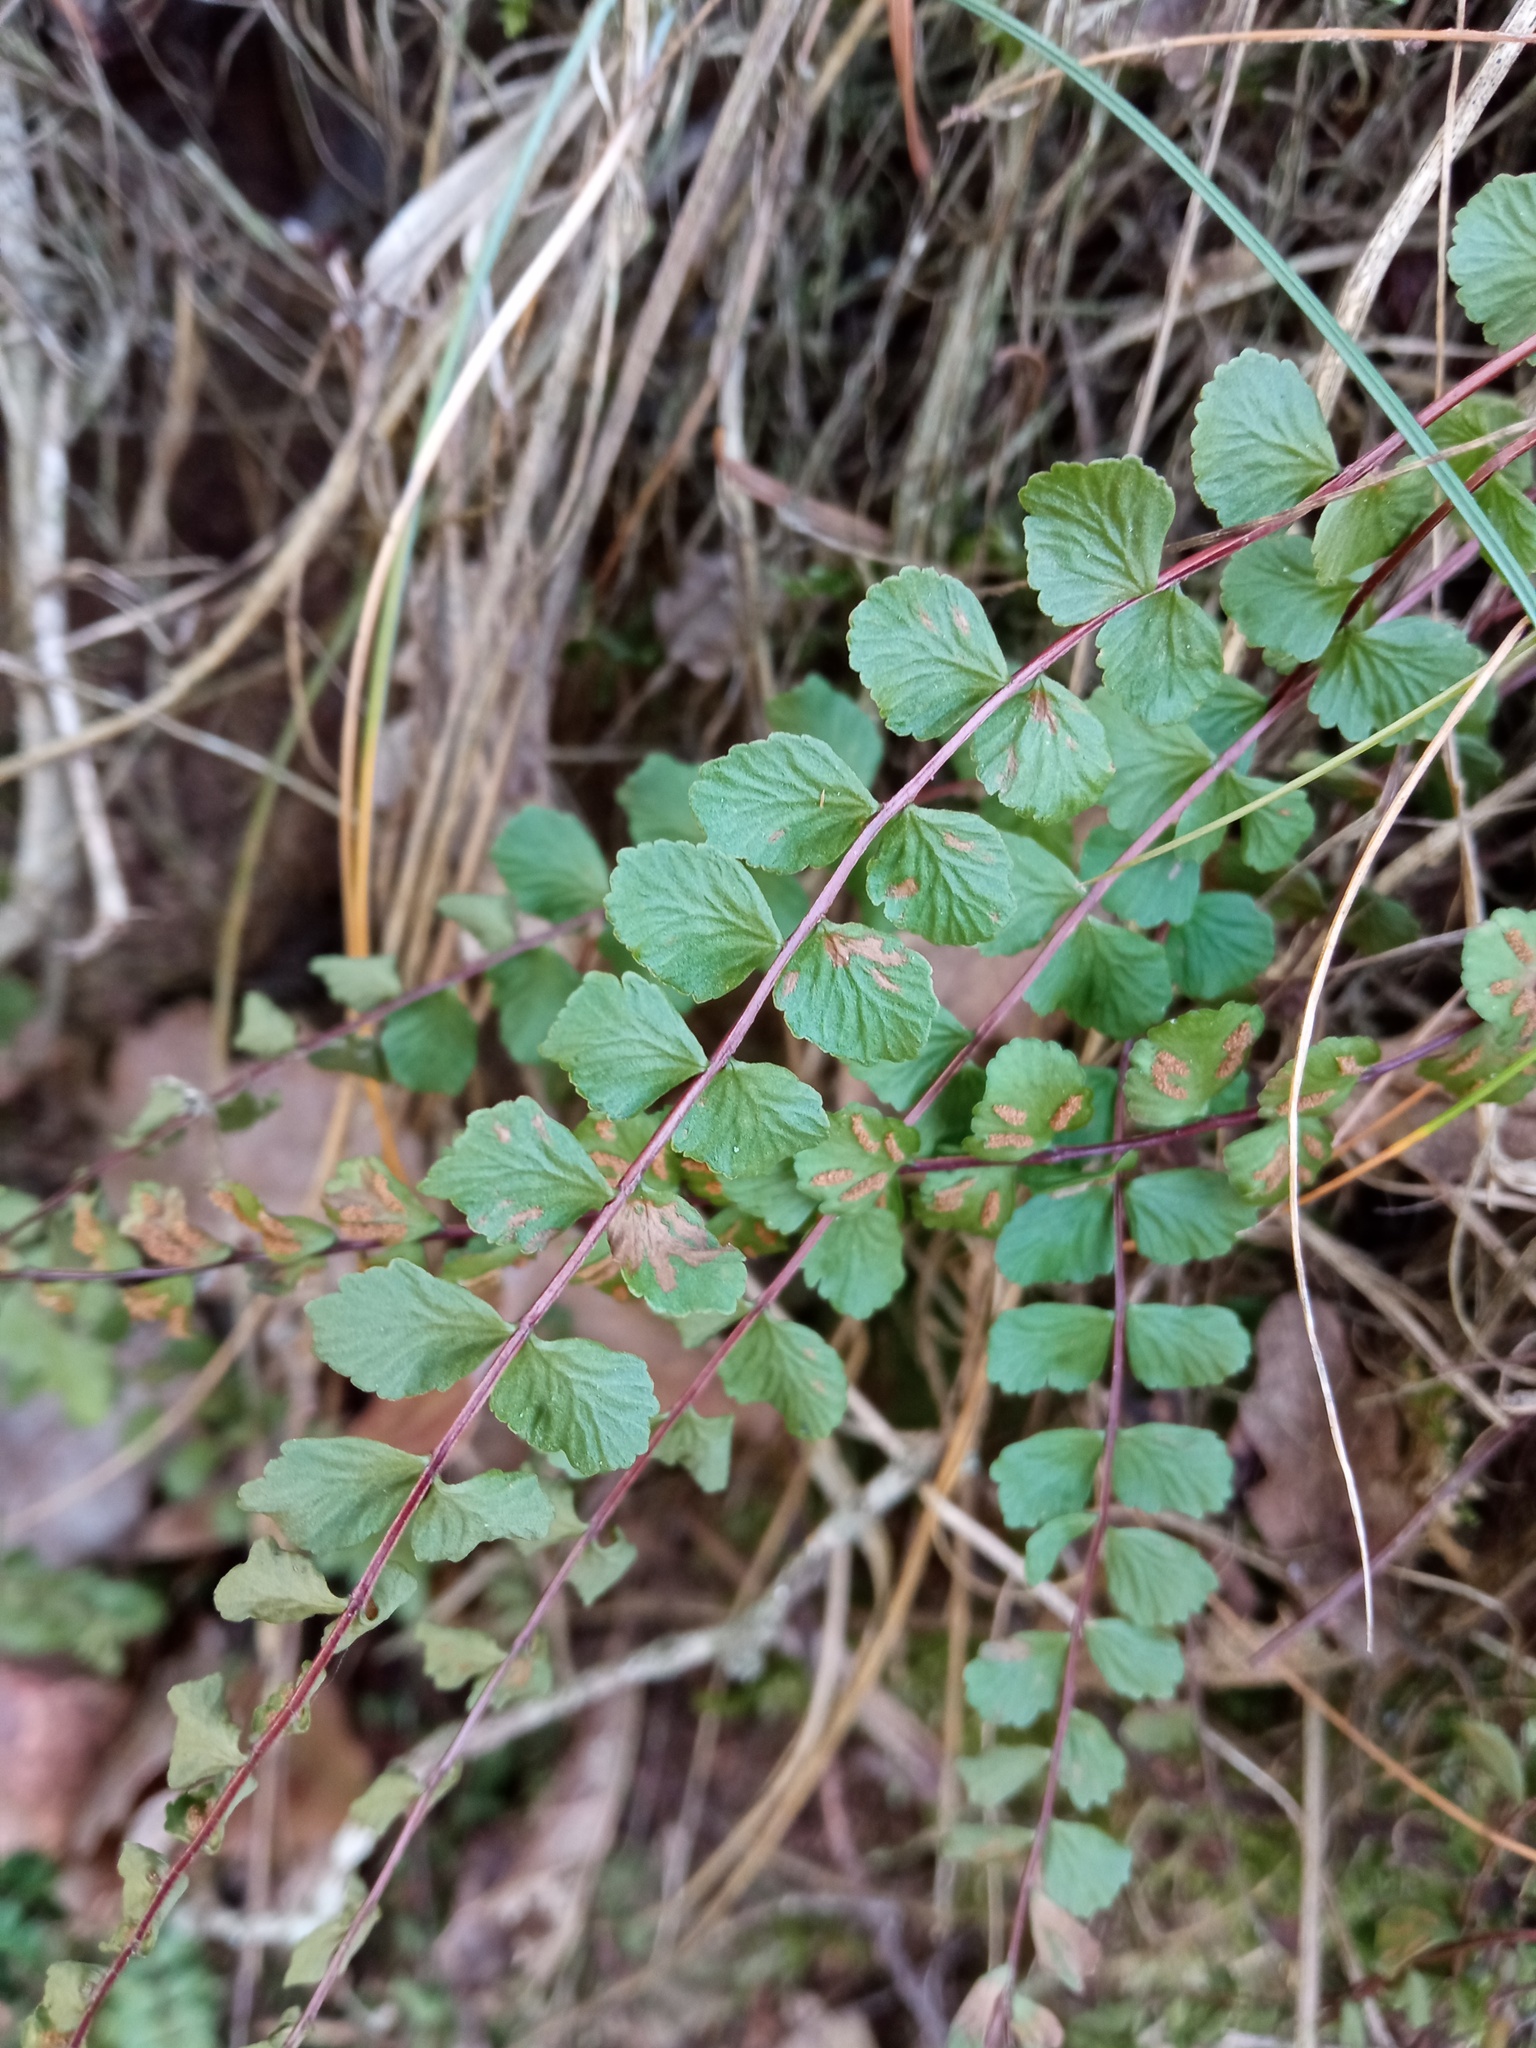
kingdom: Plantae
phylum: Tracheophyta
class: Polypodiopsida
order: Polypodiales
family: Aspleniaceae
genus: Asplenium
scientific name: Asplenium trichomanes
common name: Maidenhair spleenwort
